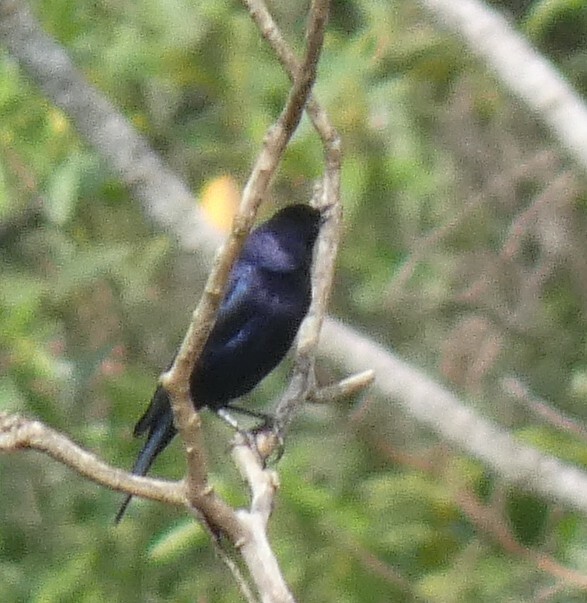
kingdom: Animalia
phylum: Chordata
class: Aves
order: Passeriformes
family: Icteridae
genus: Molothrus
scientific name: Molothrus bonariensis
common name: Shiny cowbird
